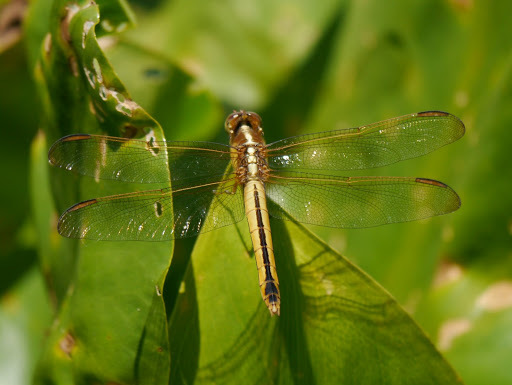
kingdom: Animalia
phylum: Arthropoda
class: Insecta
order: Odonata
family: Libellulidae
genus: Libellula
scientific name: Libellula needhami
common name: Needham's skimmer
